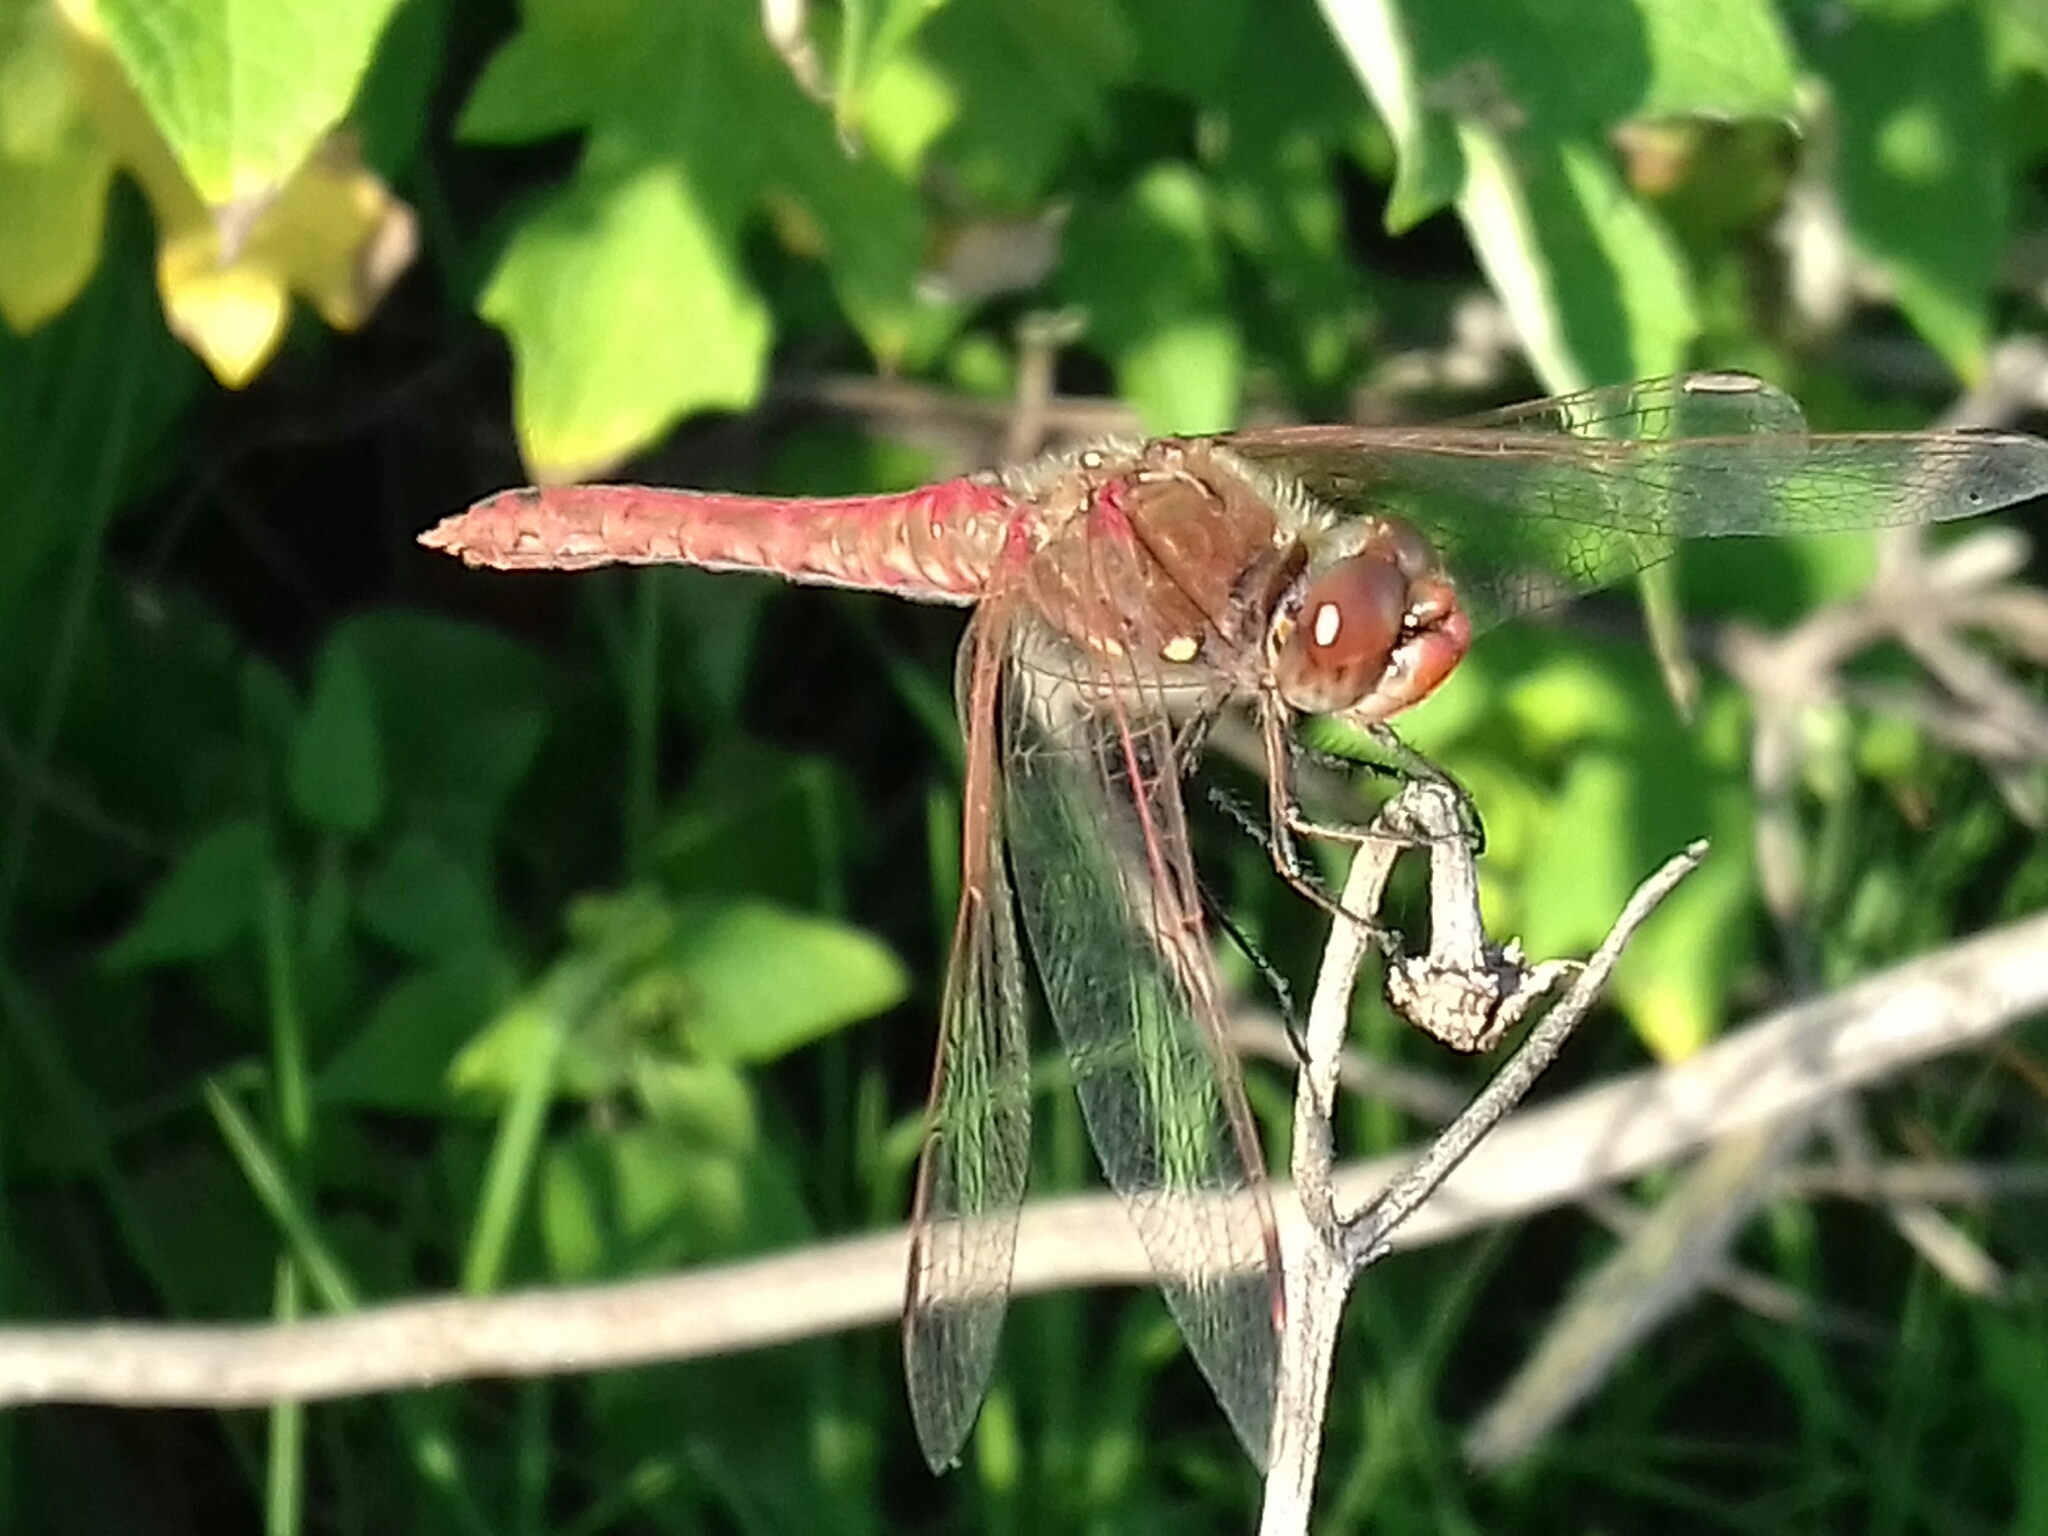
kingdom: Animalia
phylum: Arthropoda
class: Insecta
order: Odonata
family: Libellulidae
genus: Sympetrum
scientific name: Sympetrum corruptum
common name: Variegated meadowhawk
